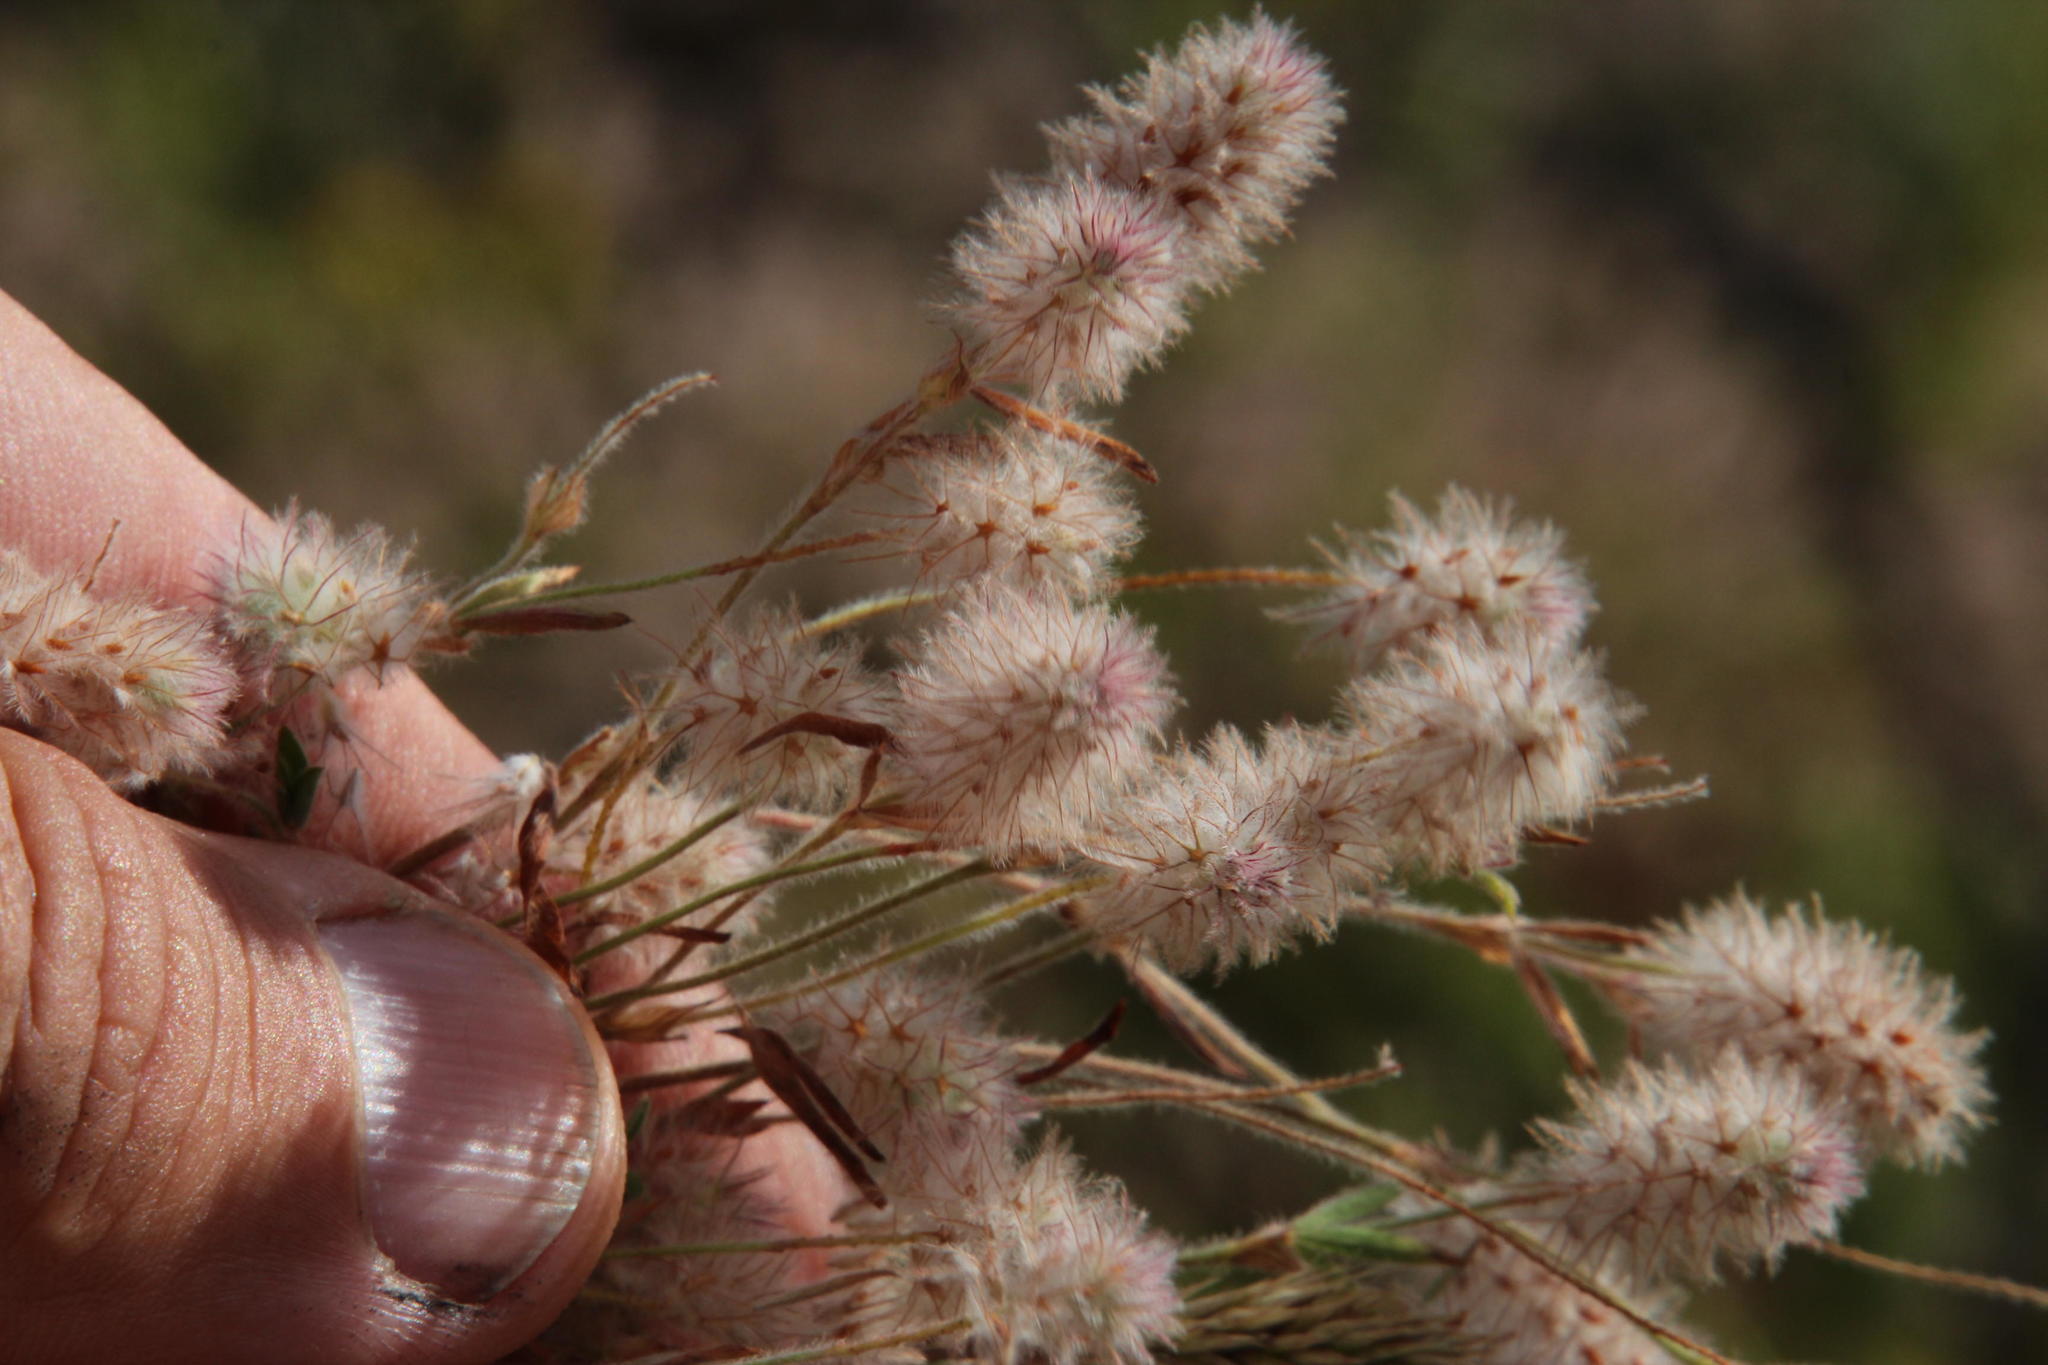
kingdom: Plantae
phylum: Tracheophyta
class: Magnoliopsida
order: Fabales
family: Fabaceae
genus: Trifolium
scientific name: Trifolium arvense
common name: Hare's-foot clover
